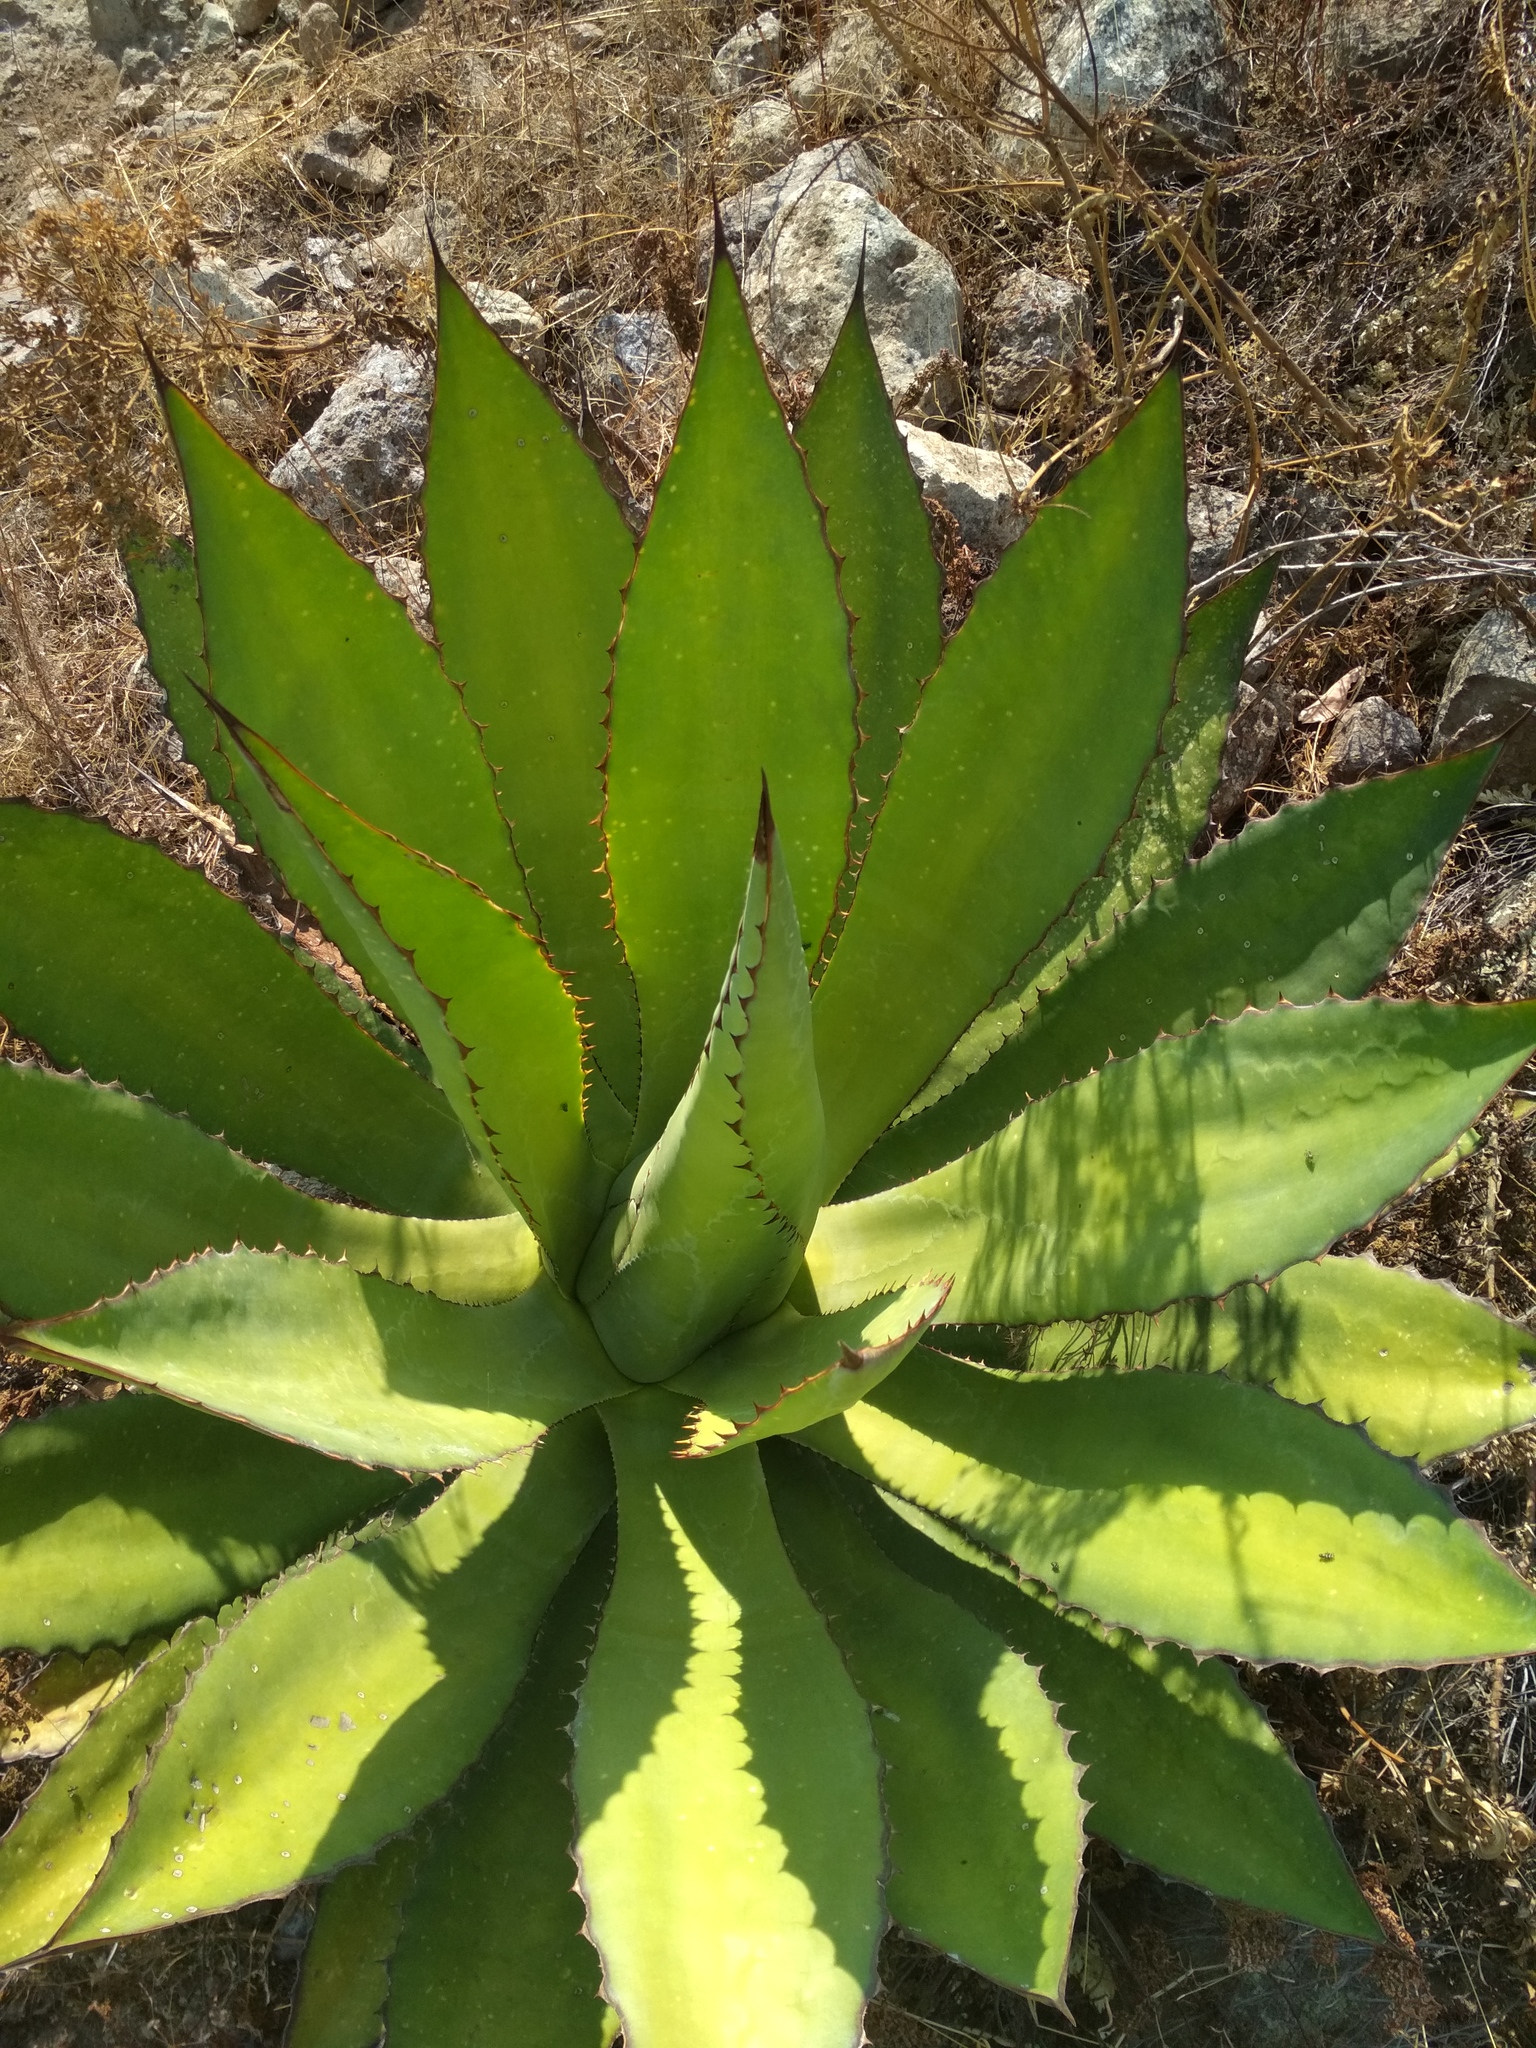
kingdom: Plantae
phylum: Tracheophyta
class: Liliopsida
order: Asparagales
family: Asparagaceae
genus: Agave
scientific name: Agave inaequidens
